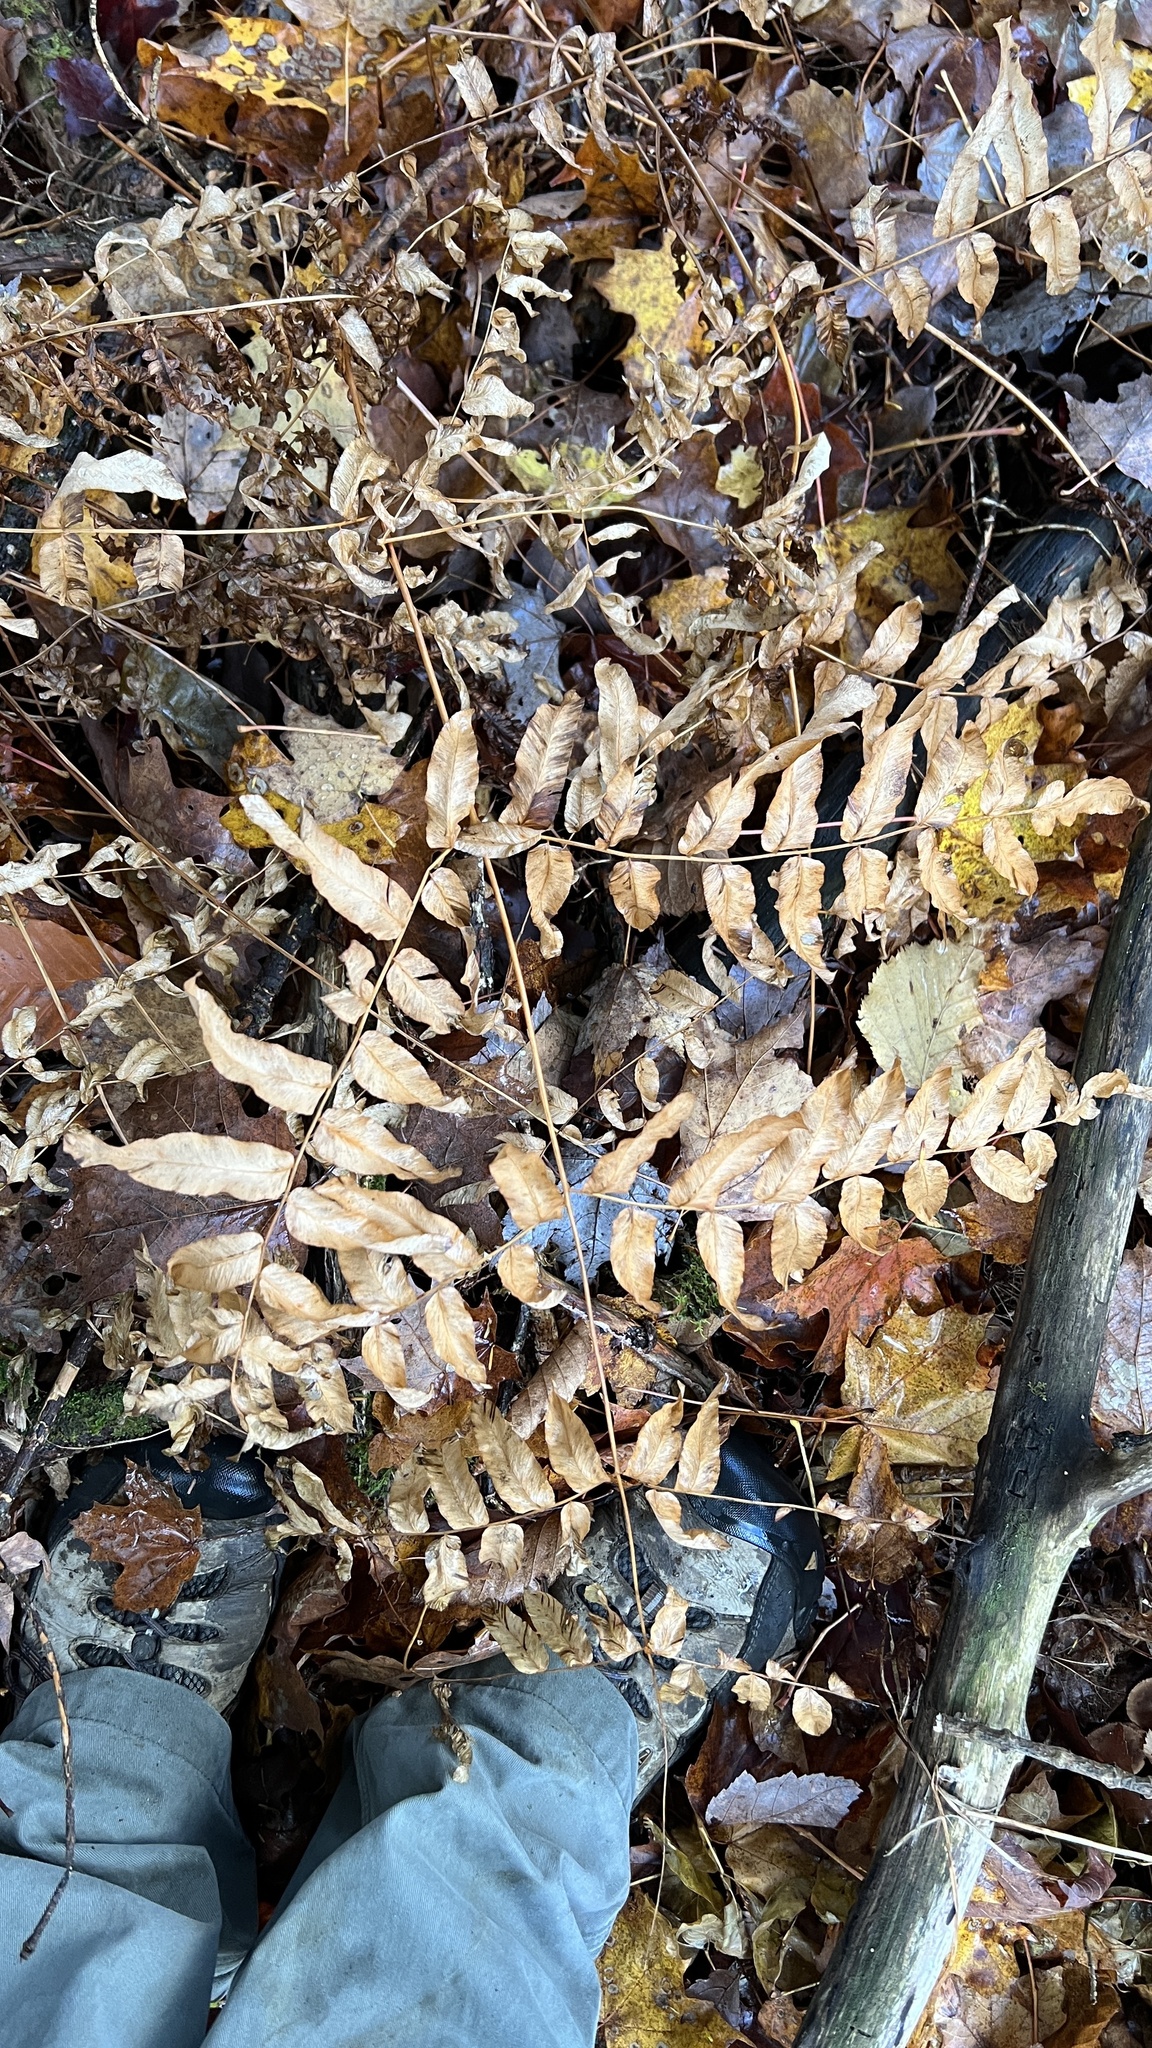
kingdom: Plantae
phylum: Tracheophyta
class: Polypodiopsida
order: Osmundales
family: Osmundaceae
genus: Osmunda
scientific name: Osmunda spectabilis
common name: American royal fern
